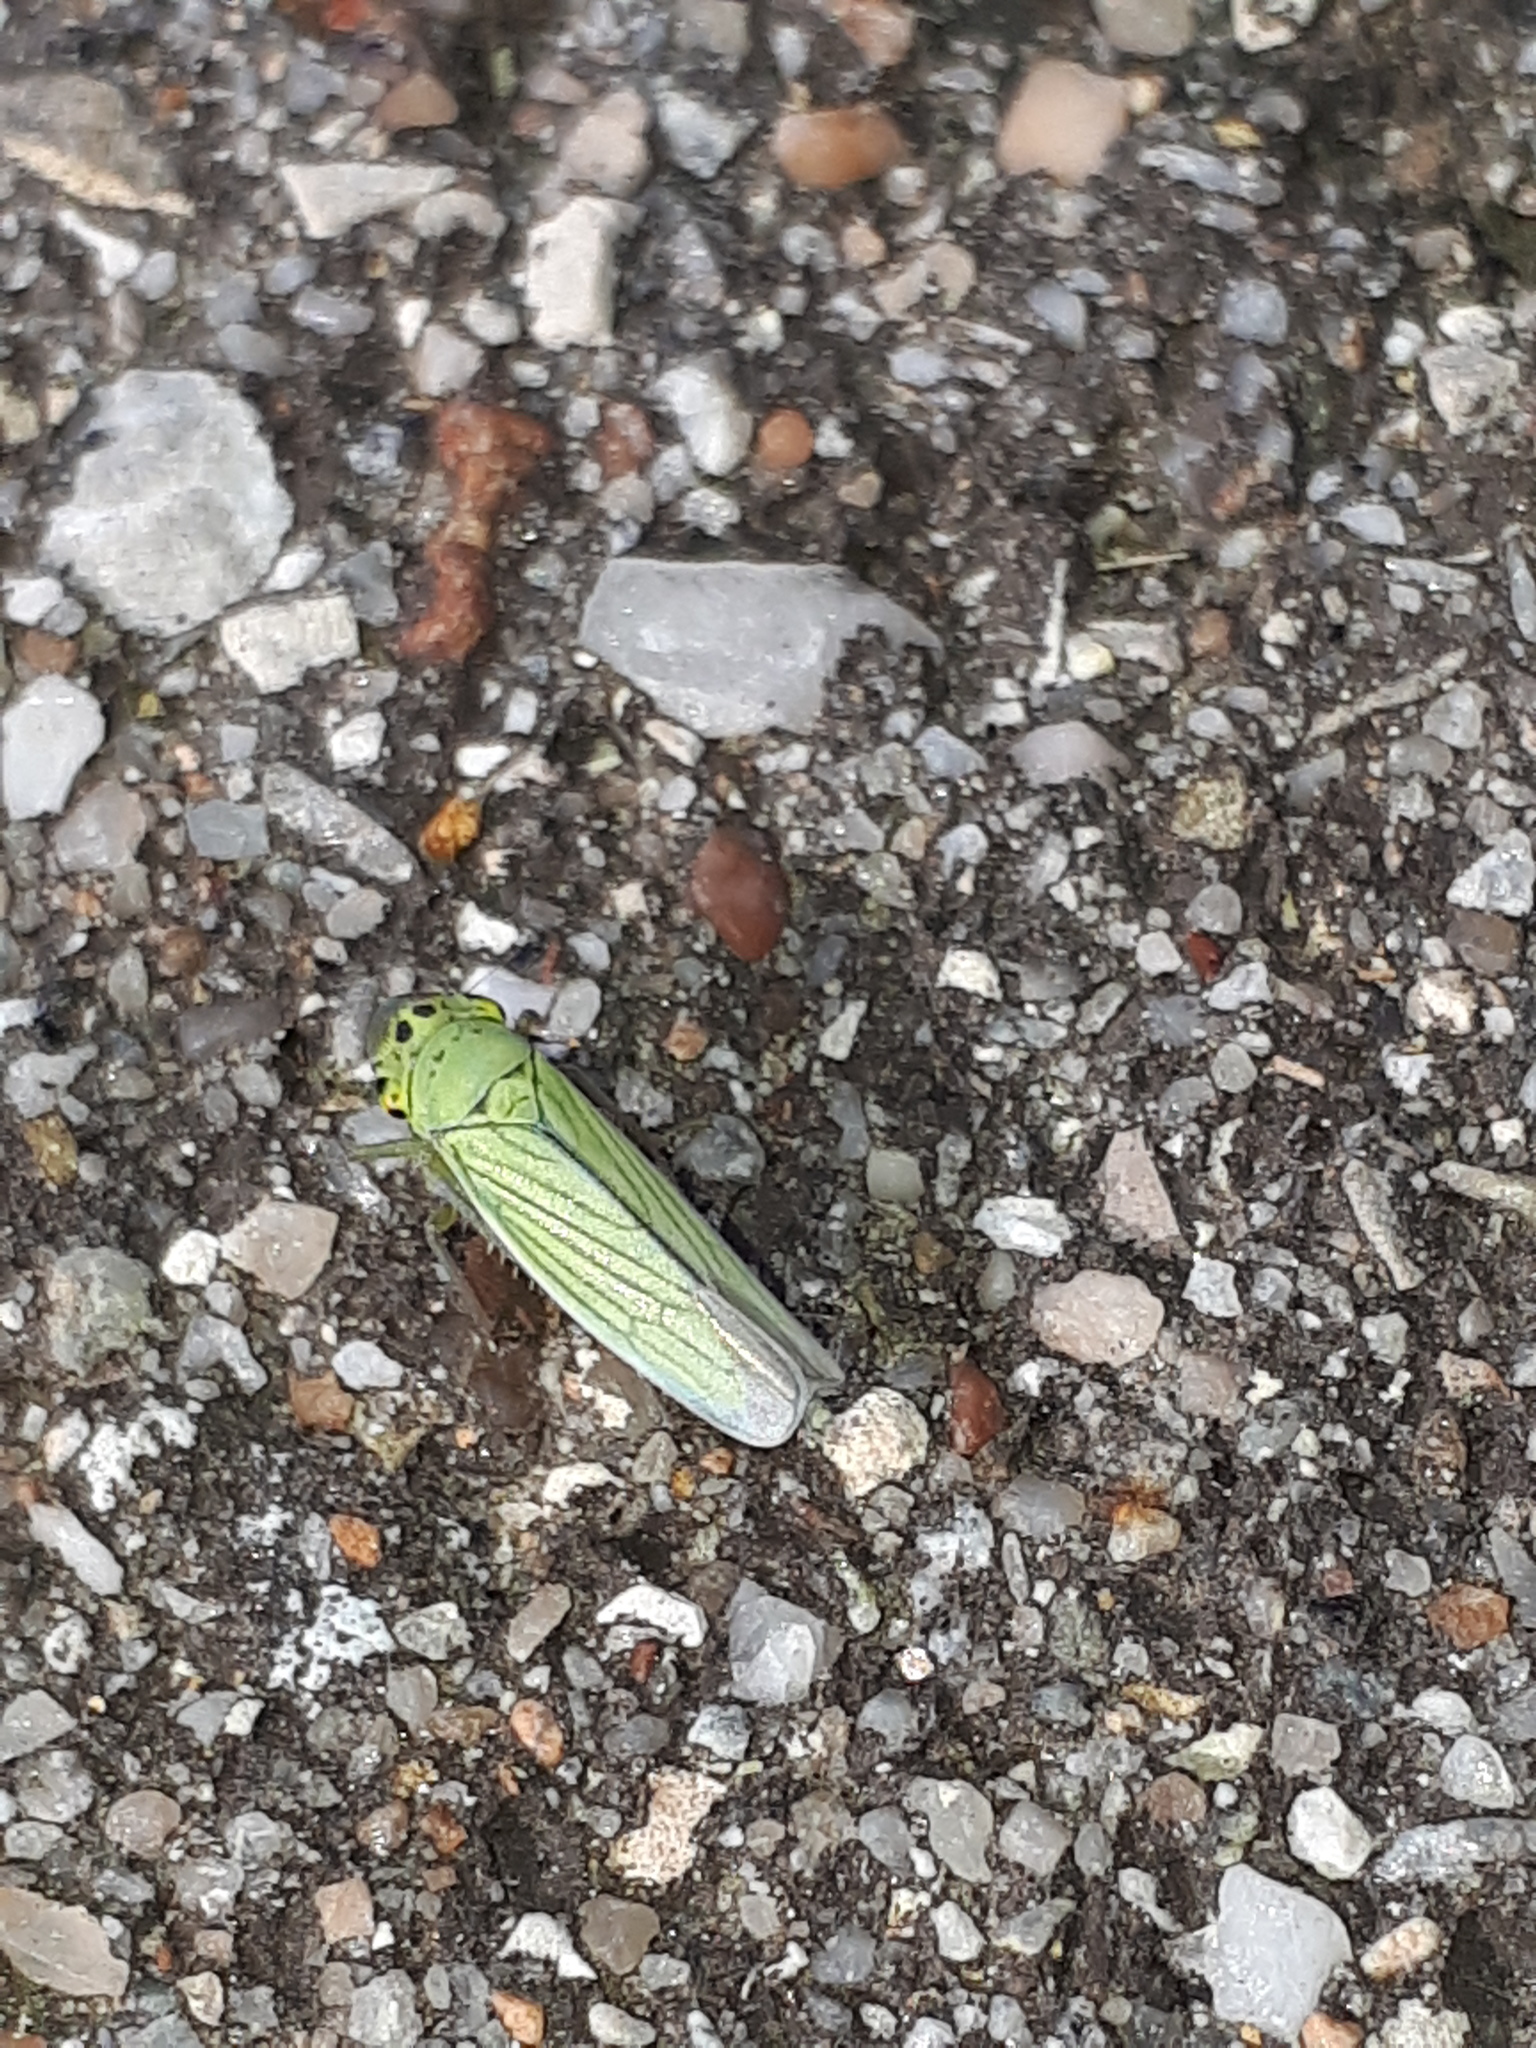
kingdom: Animalia
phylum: Arthropoda
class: Insecta
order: Hemiptera
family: Cicadellidae
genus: Cicadella
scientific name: Cicadella viridis
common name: Leafhopper
